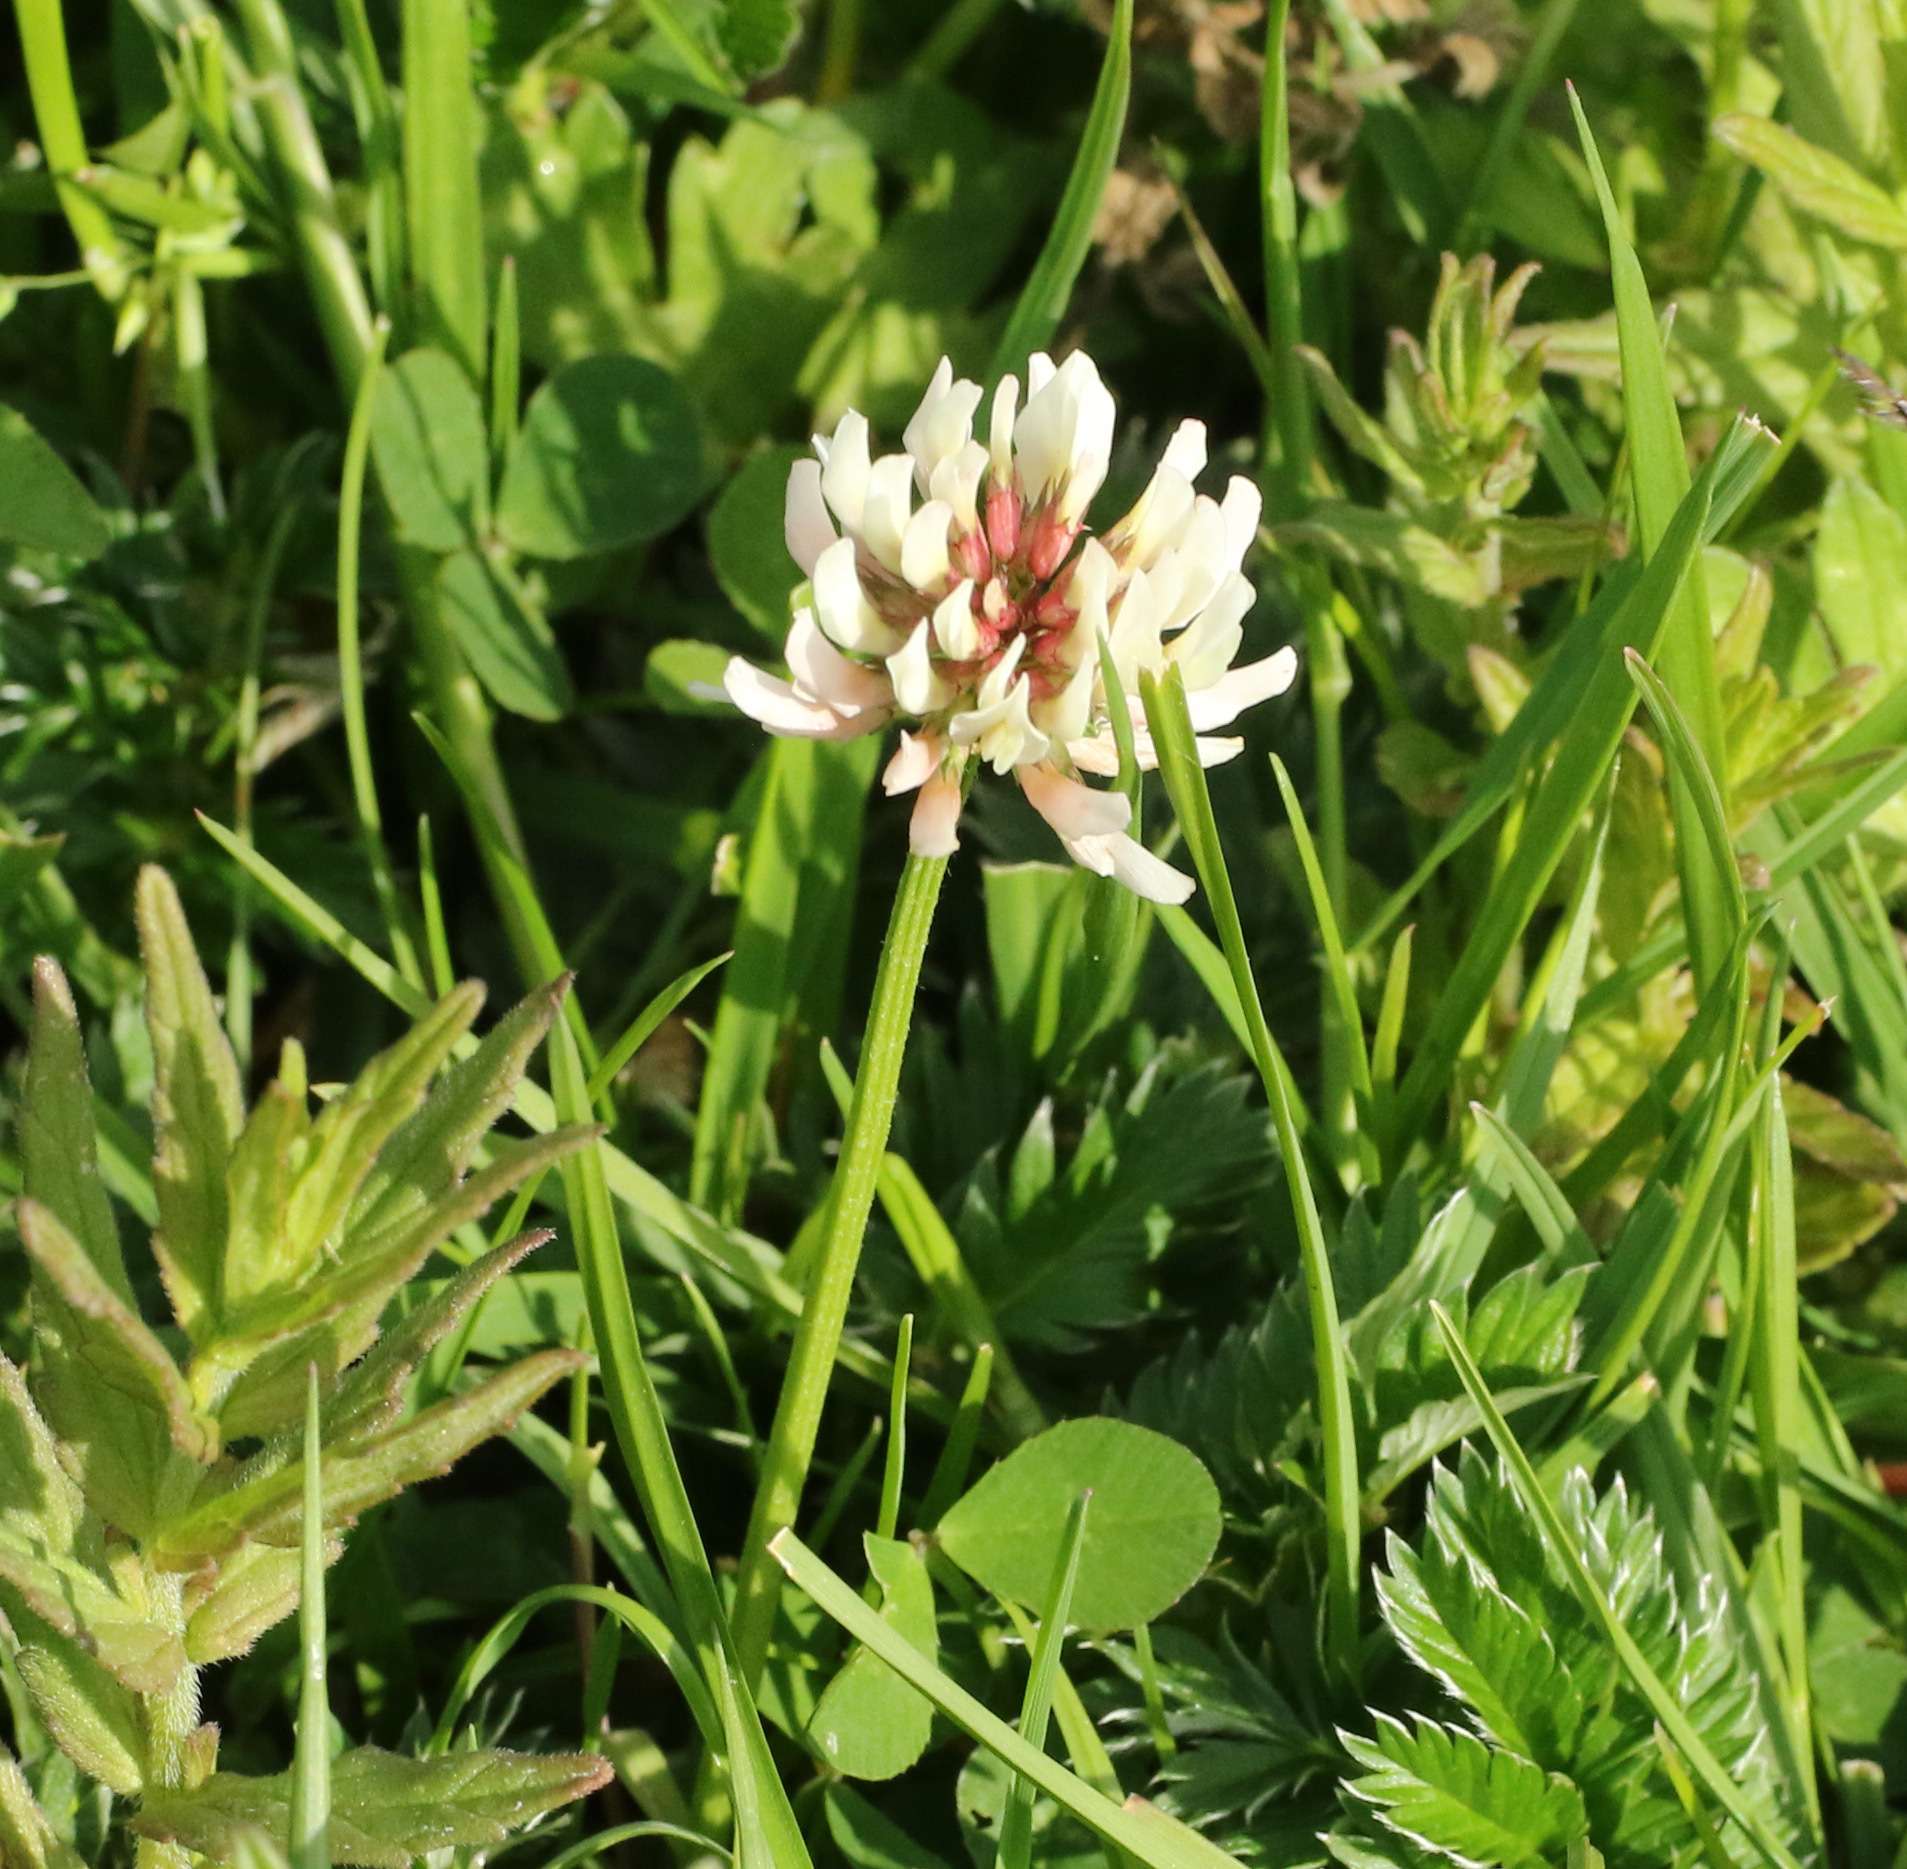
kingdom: Plantae
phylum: Tracheophyta
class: Magnoliopsida
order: Fabales
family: Fabaceae
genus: Trifolium
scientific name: Trifolium repens
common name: White clover
